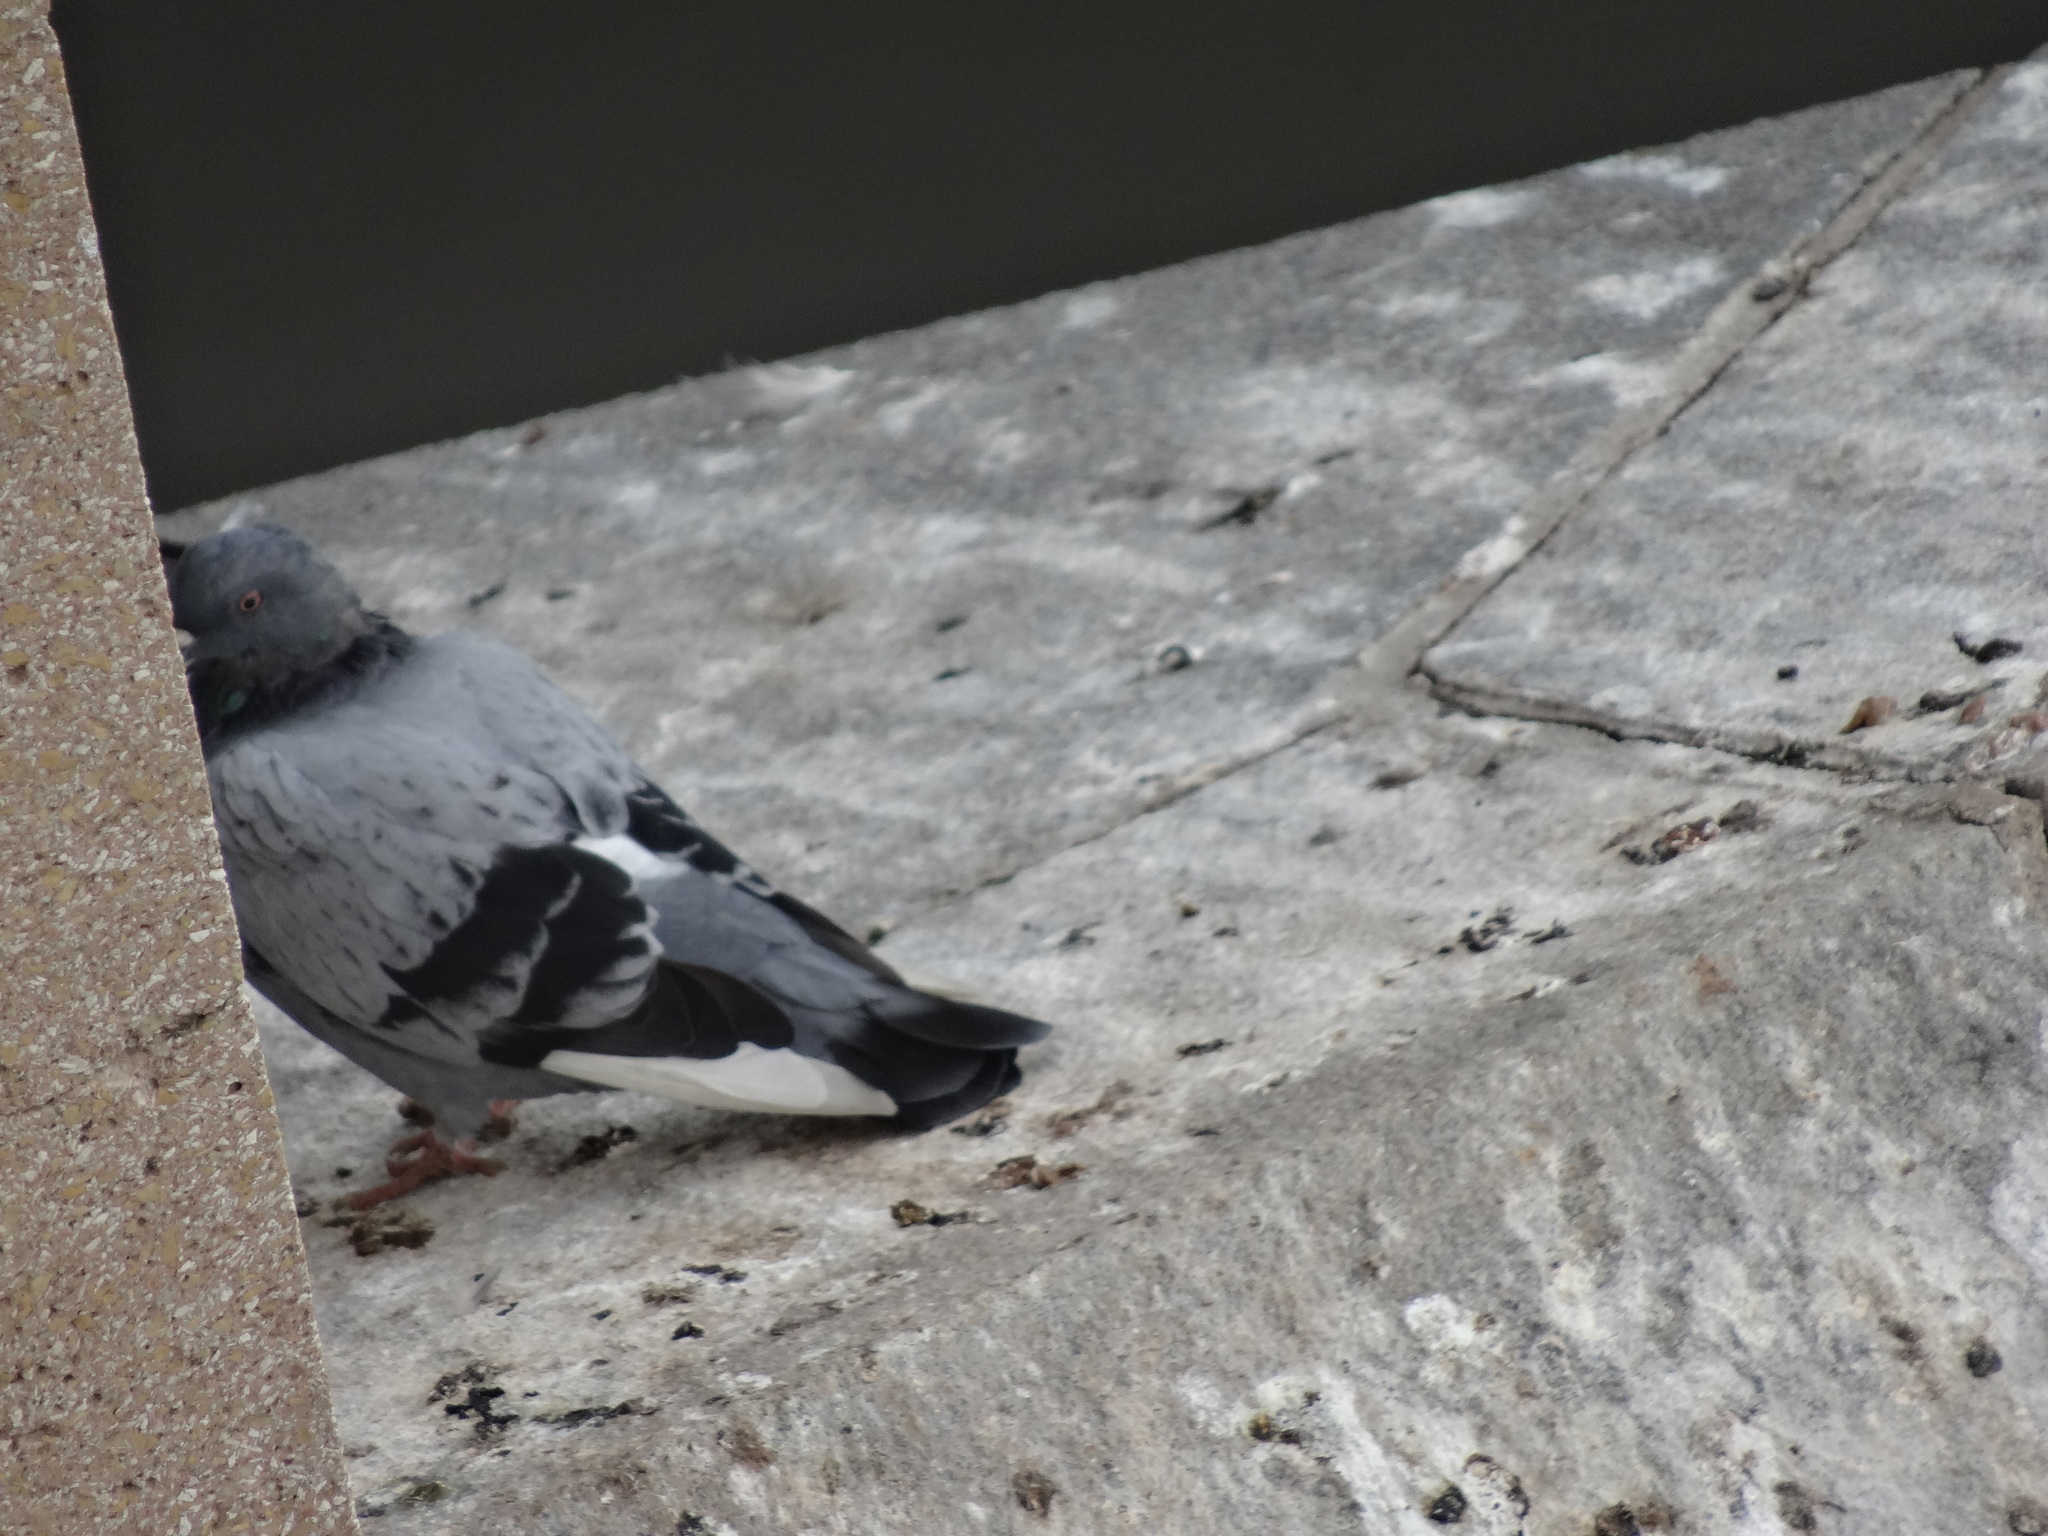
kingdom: Animalia
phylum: Chordata
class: Aves
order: Columbiformes
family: Columbidae
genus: Columba
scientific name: Columba livia
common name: Rock pigeon
